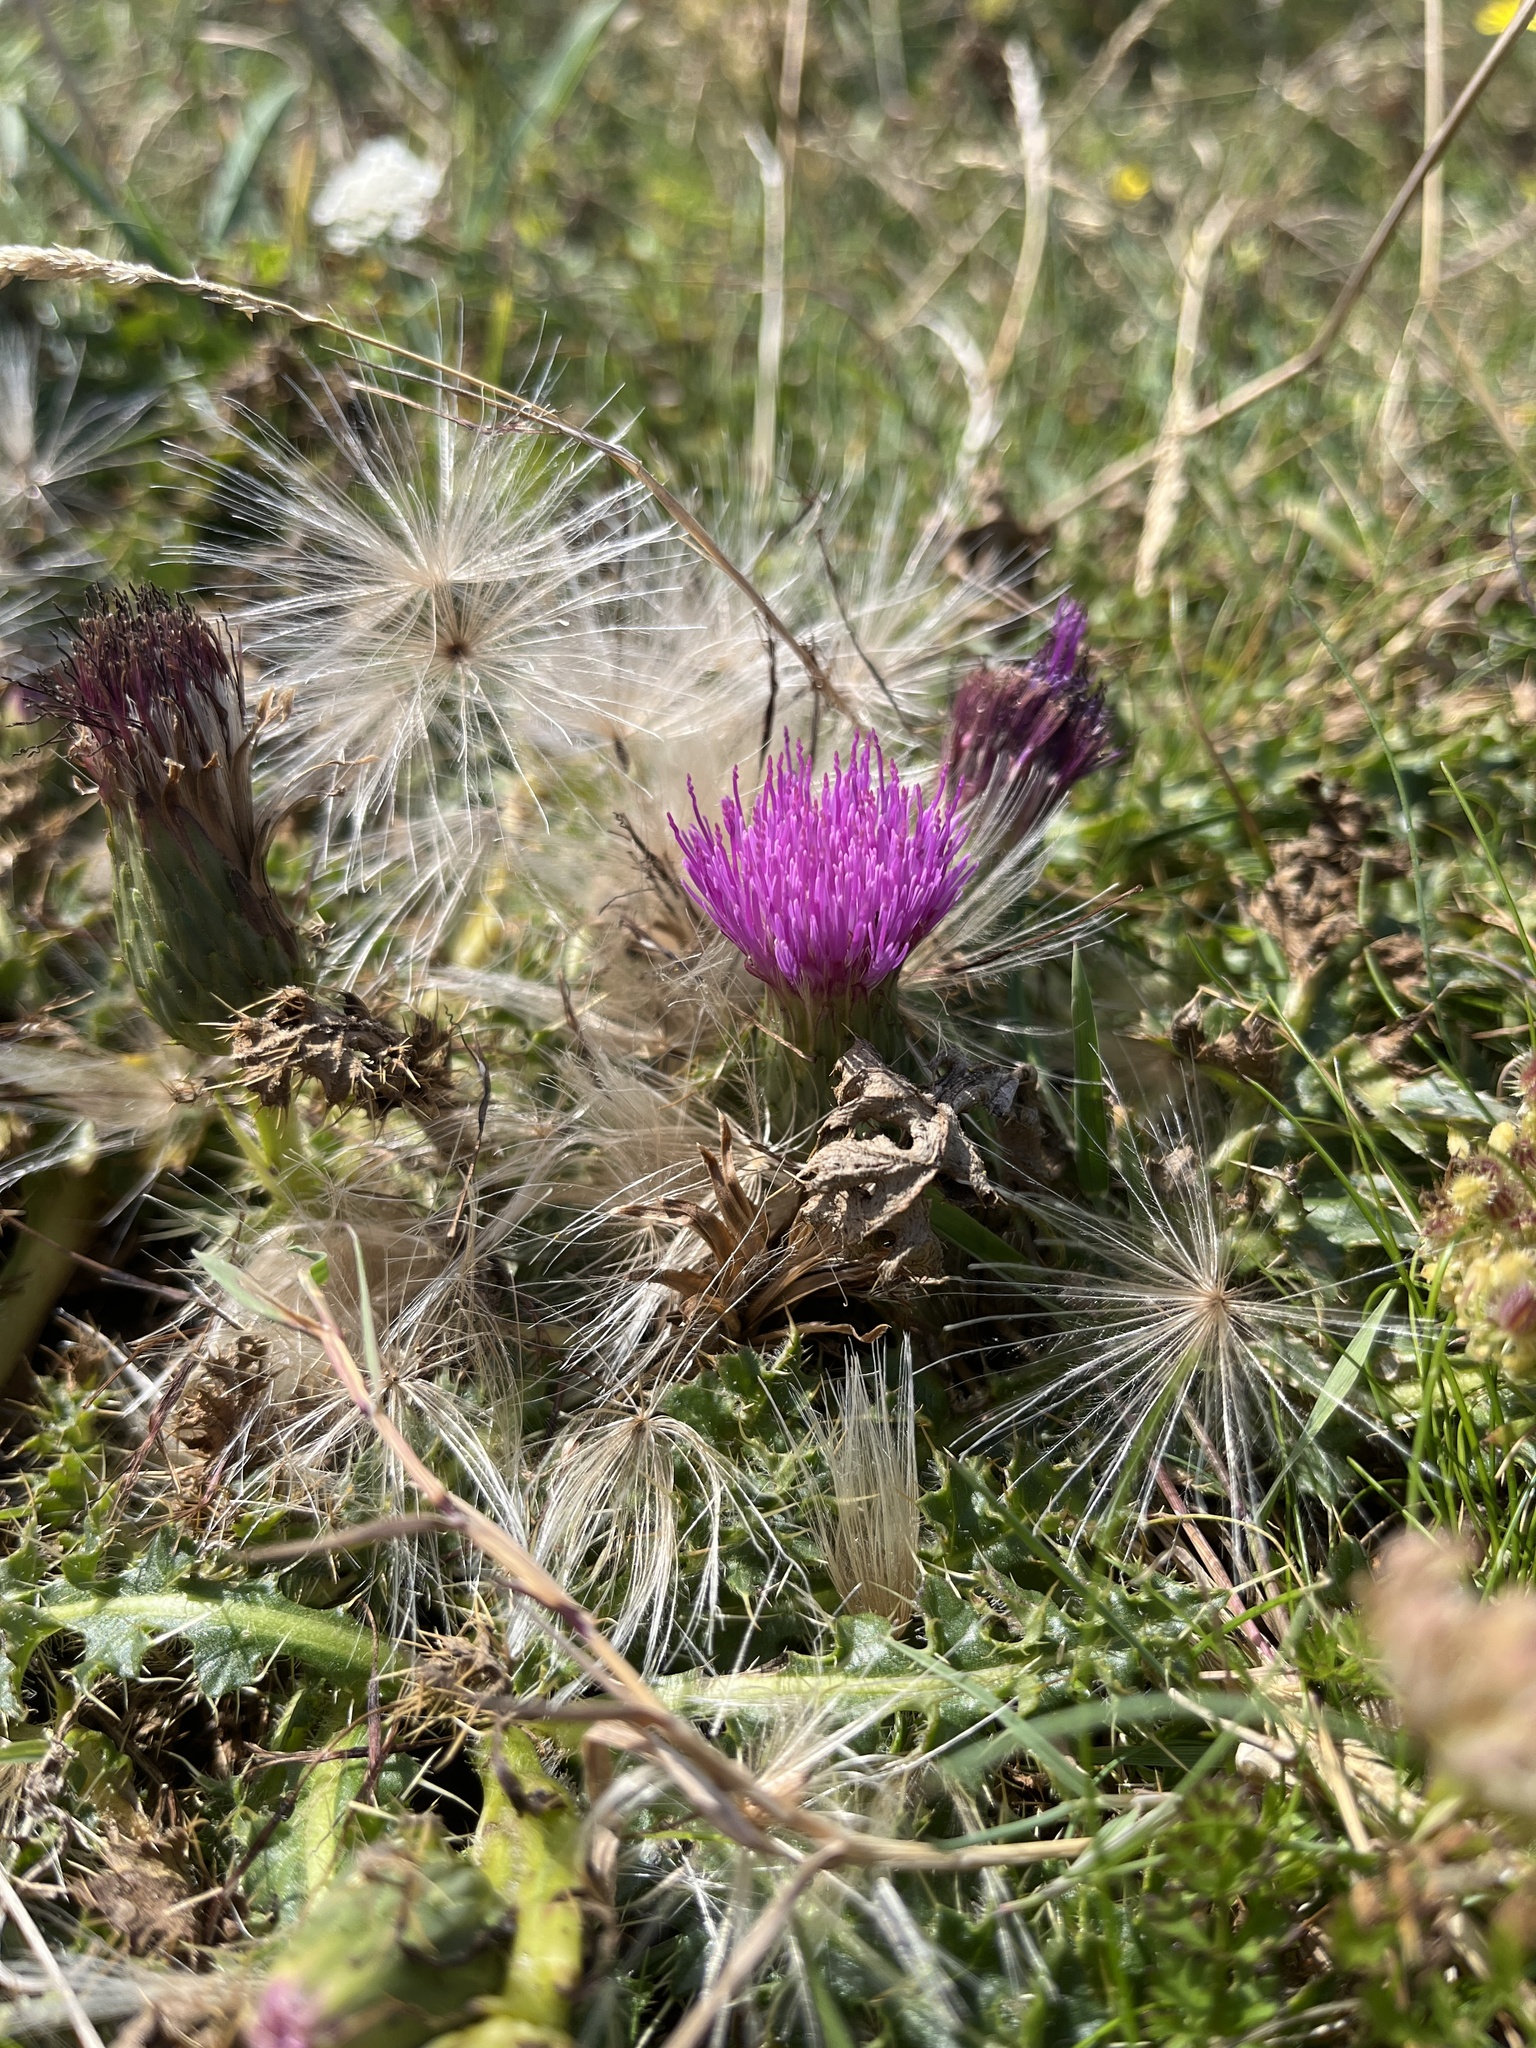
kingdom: Plantae
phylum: Tracheophyta
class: Magnoliopsida
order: Asterales
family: Asteraceae
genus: Cirsium
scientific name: Cirsium acaulon
